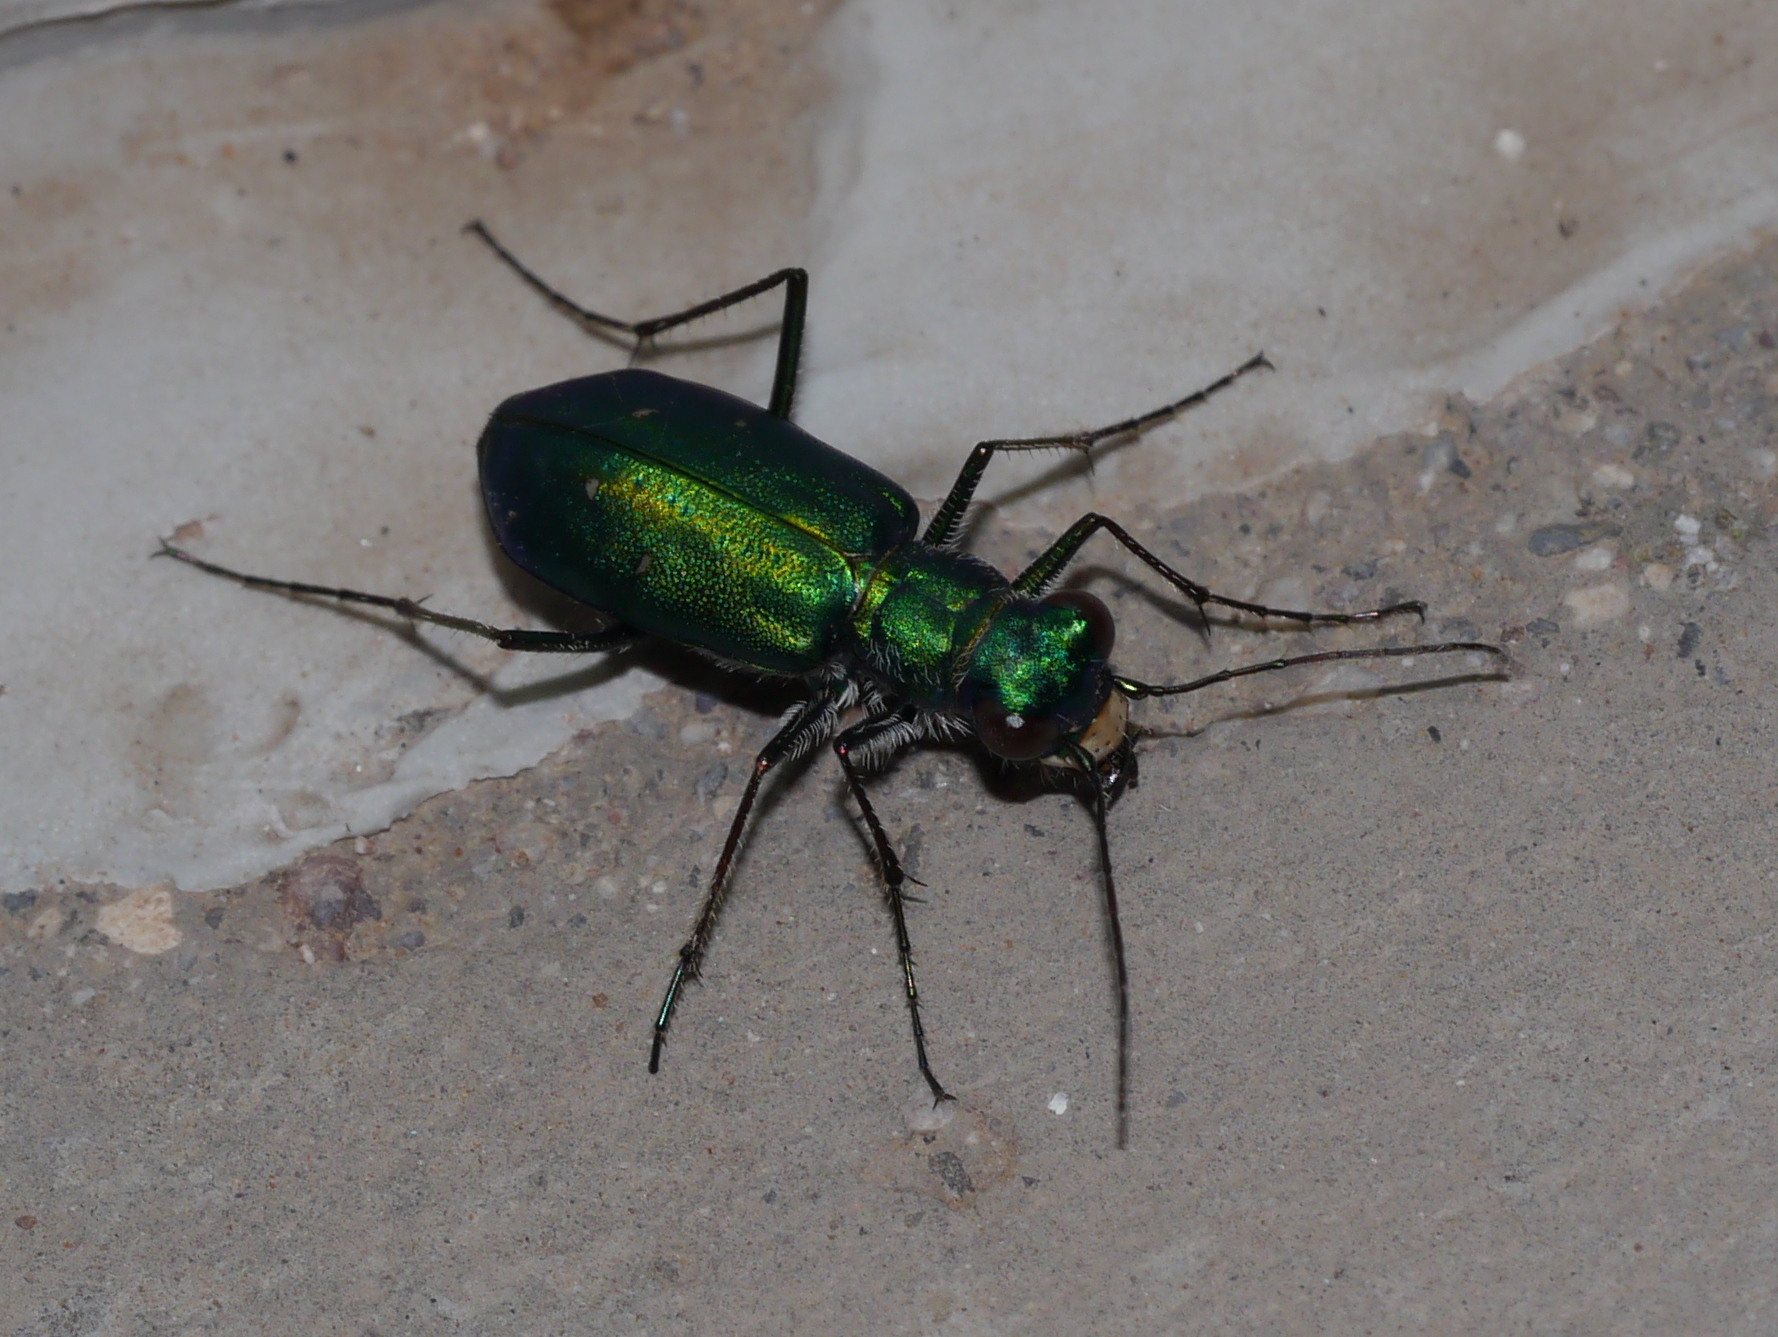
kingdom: Animalia
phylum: Arthropoda
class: Insecta
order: Coleoptera
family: Carabidae
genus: Cicindela
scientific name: Cicindela punctulata
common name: Punctured tiger beetle
